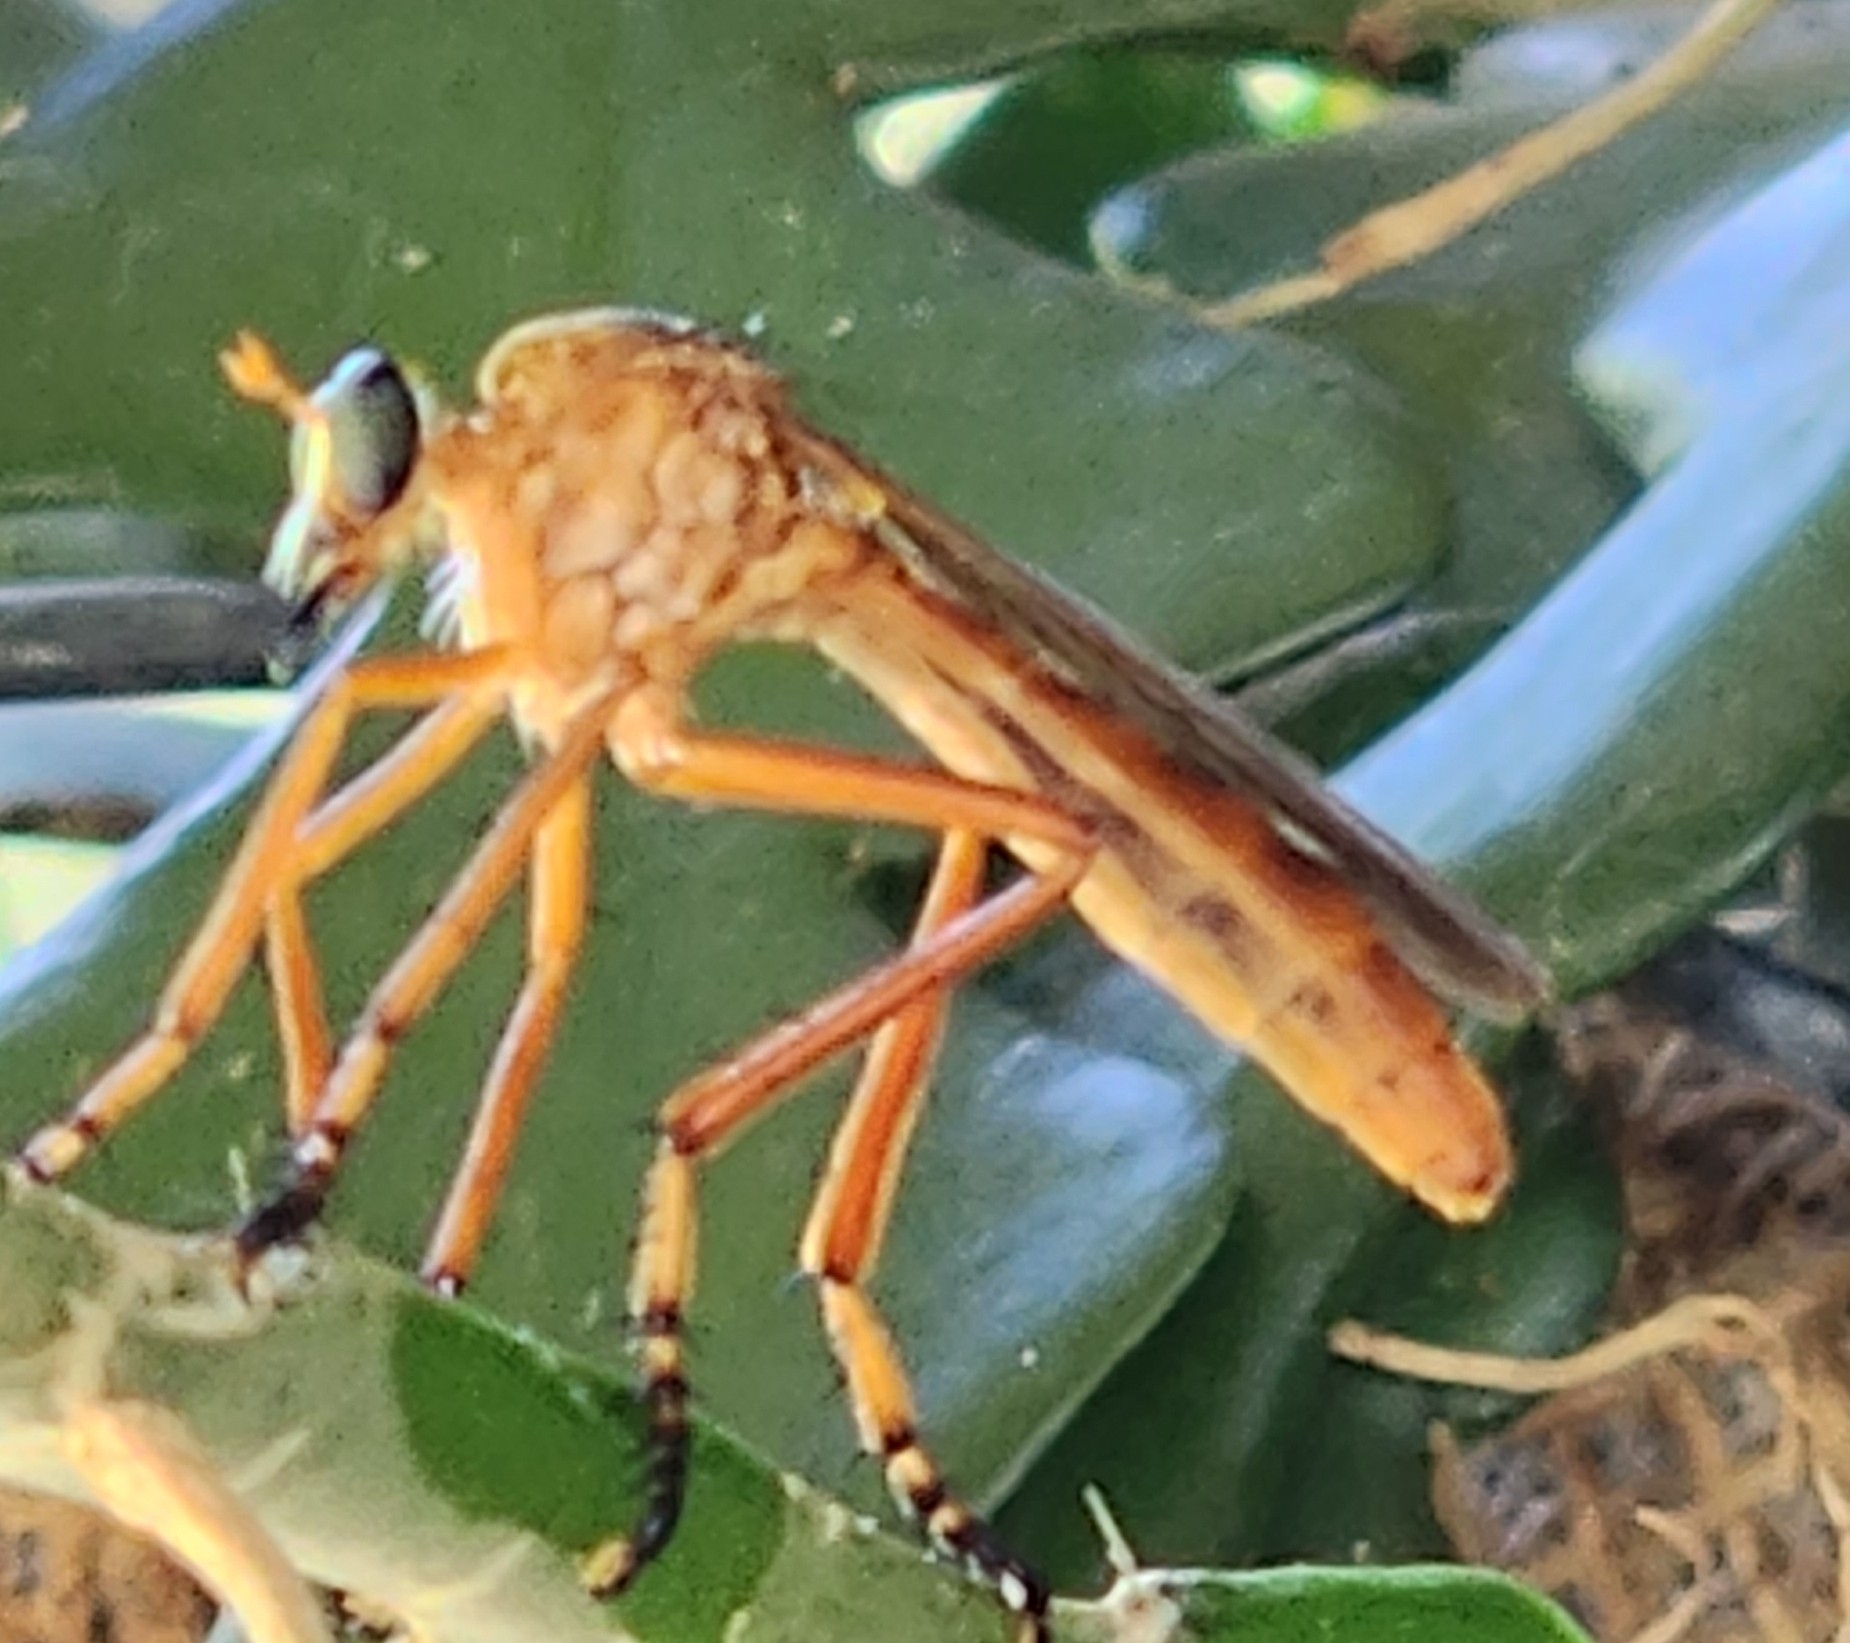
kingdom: Animalia
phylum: Arthropoda
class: Insecta
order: Diptera
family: Asilidae
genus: Diogmites
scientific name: Diogmites neoternatus
